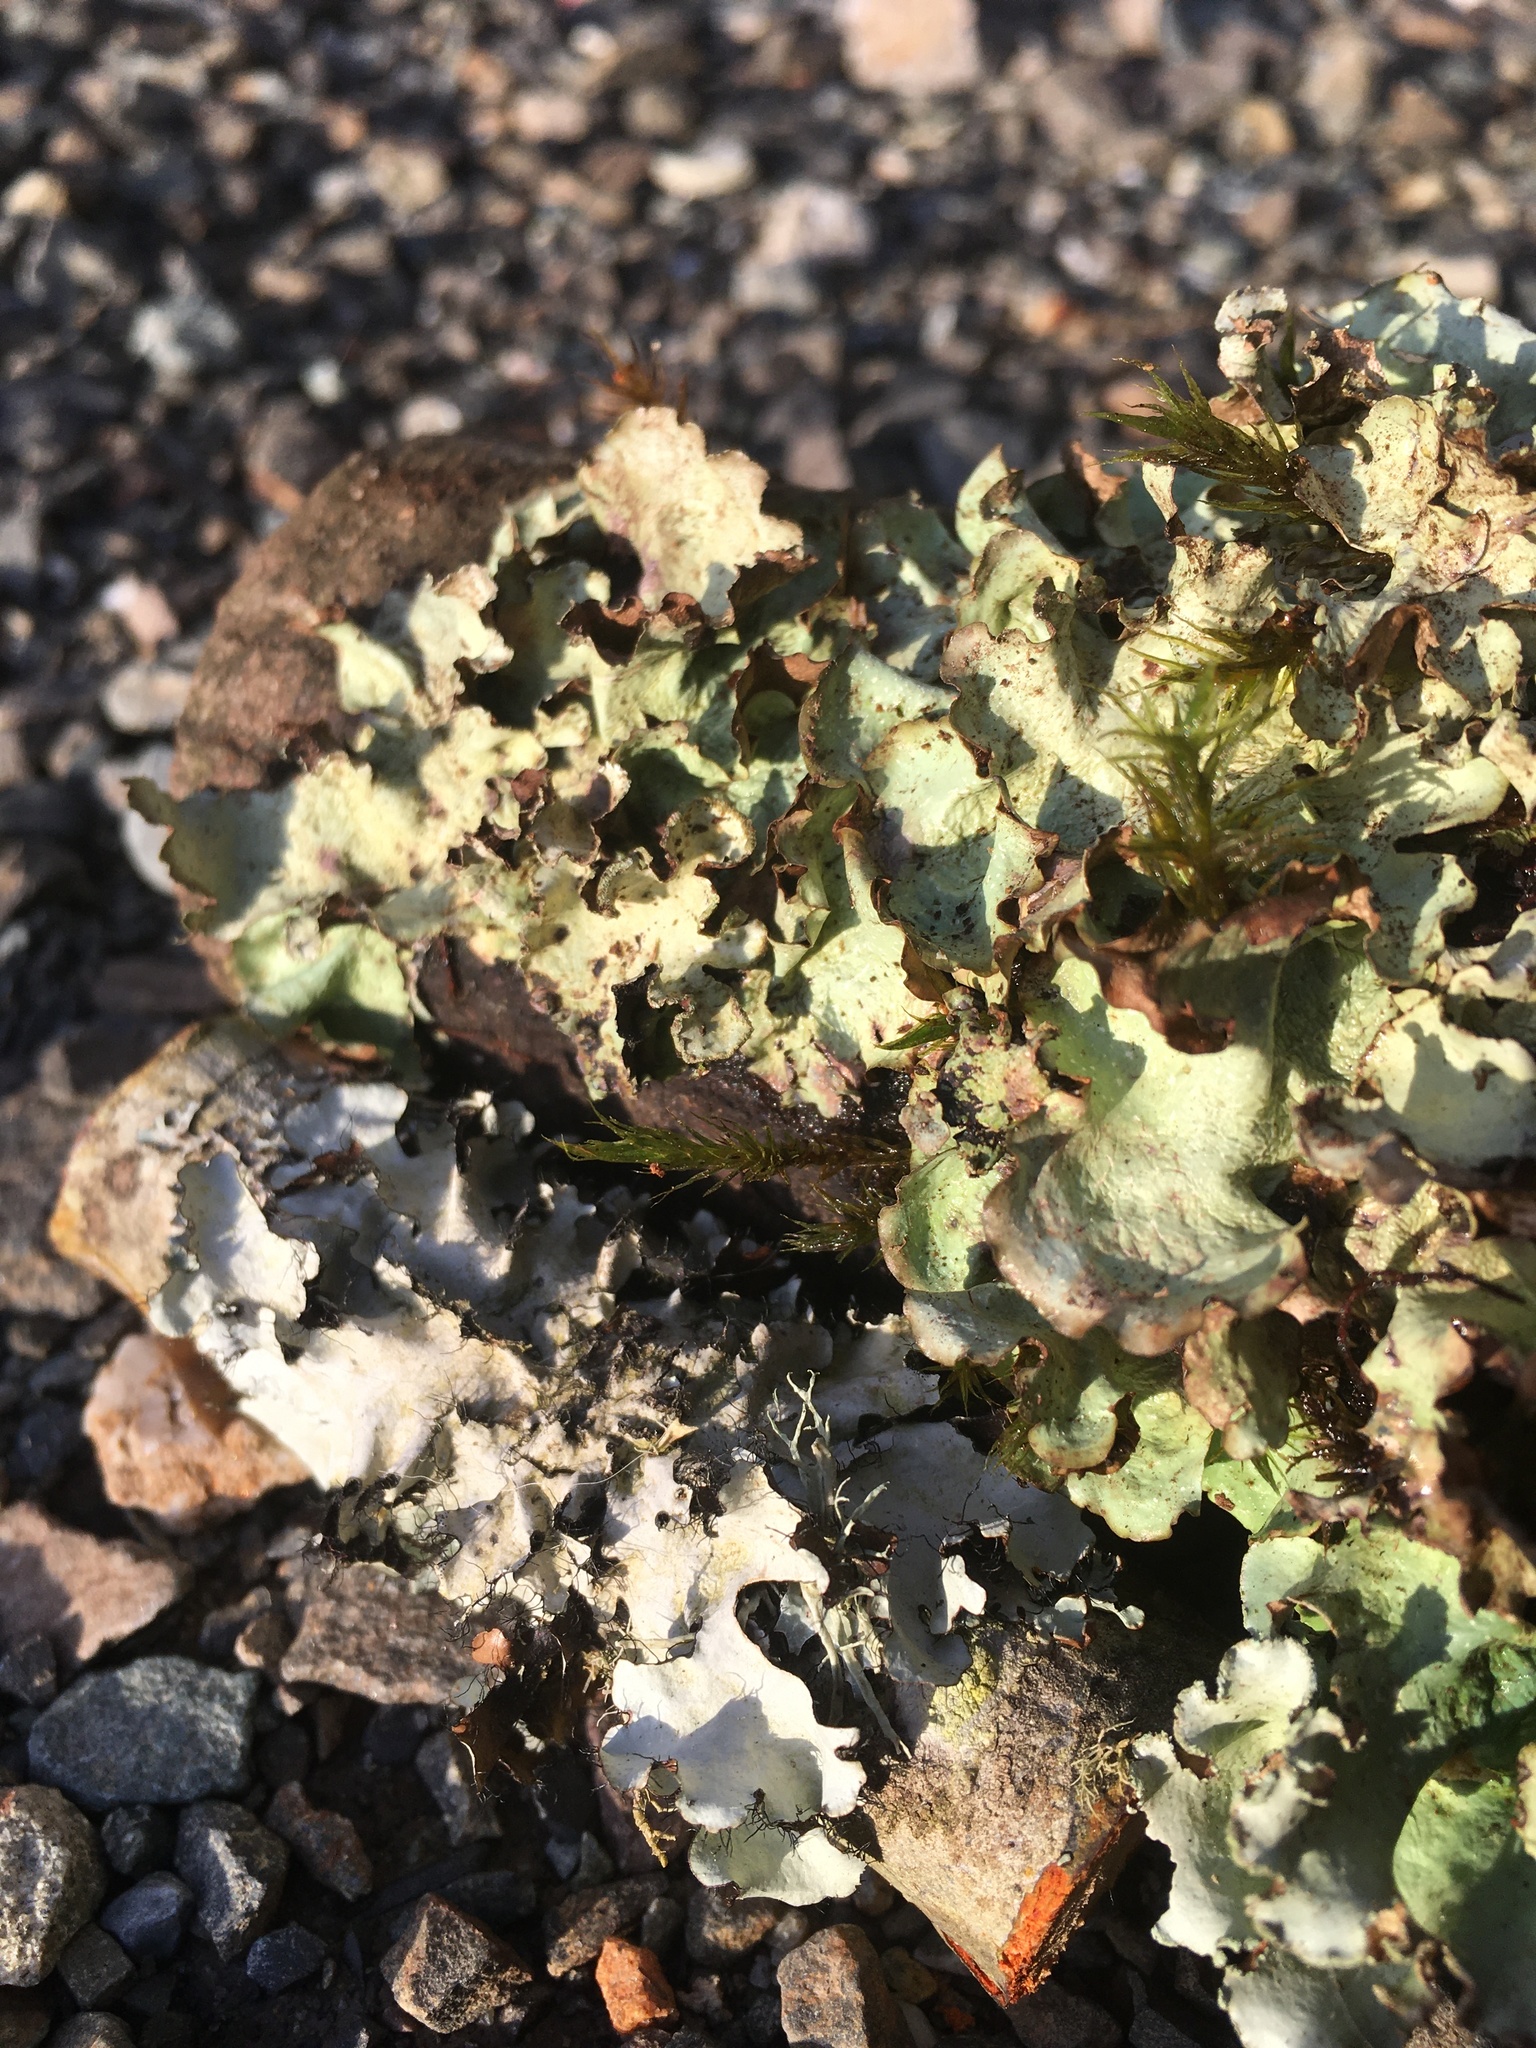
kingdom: Fungi
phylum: Ascomycota
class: Lecanoromycetes
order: Lecanorales
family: Parmeliaceae
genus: Cetrelia
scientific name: Cetrelia cetrarioides
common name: Speckled iceland lichen
